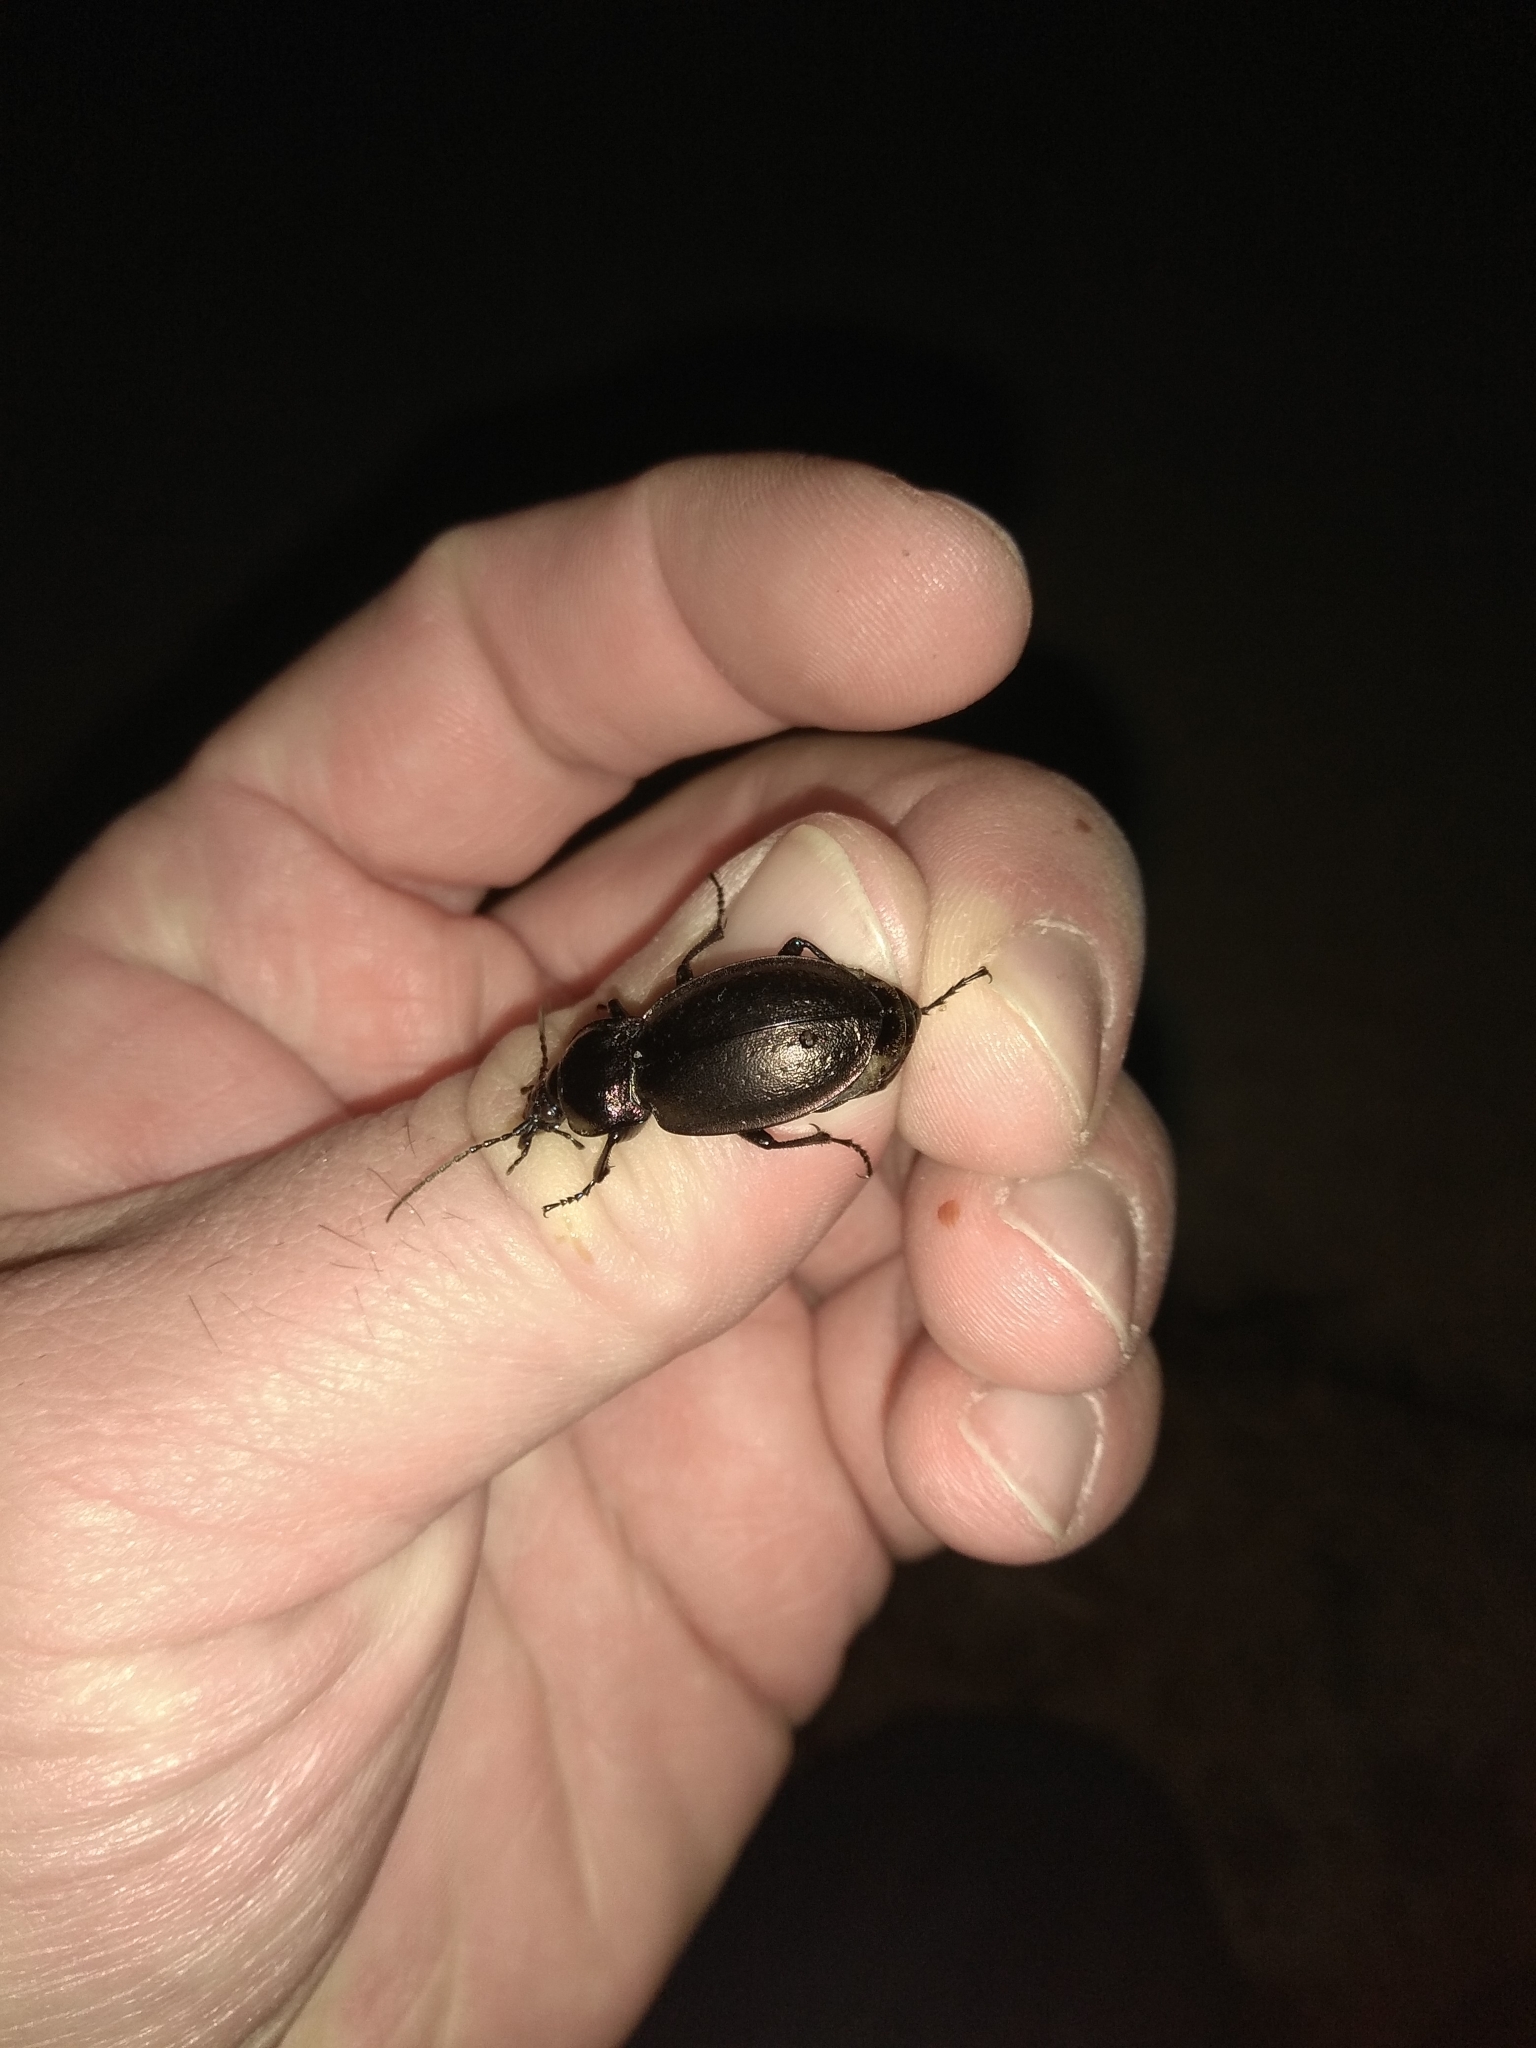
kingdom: Animalia
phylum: Arthropoda
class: Insecta
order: Coleoptera
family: Carabidae
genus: Carabus
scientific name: Carabus nemoralis
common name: European ground beetle
